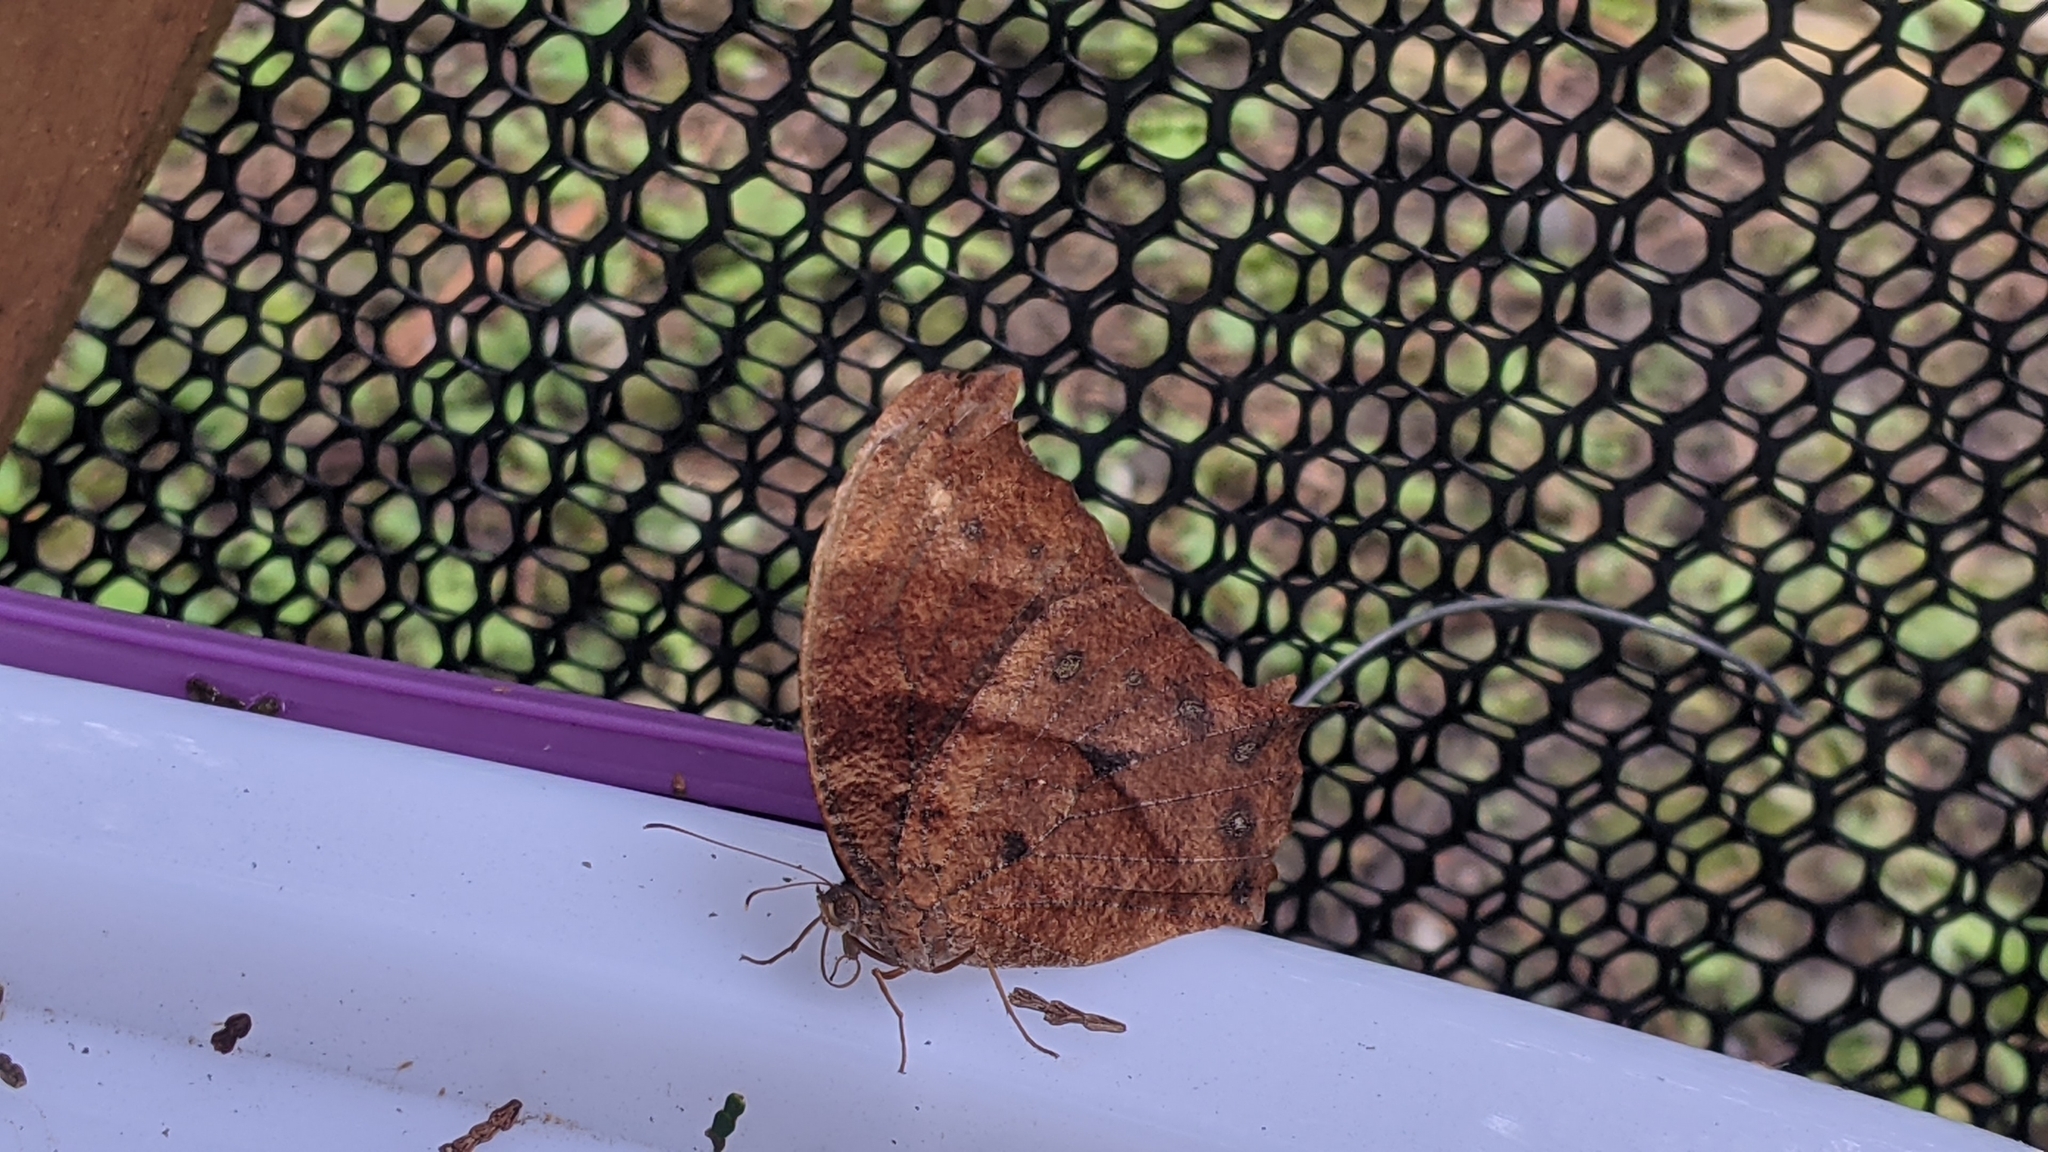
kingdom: Animalia
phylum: Arthropoda
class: Insecta
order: Lepidoptera
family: Nymphalidae
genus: Melanitis
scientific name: Melanitis phedima
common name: Dark evening brown
